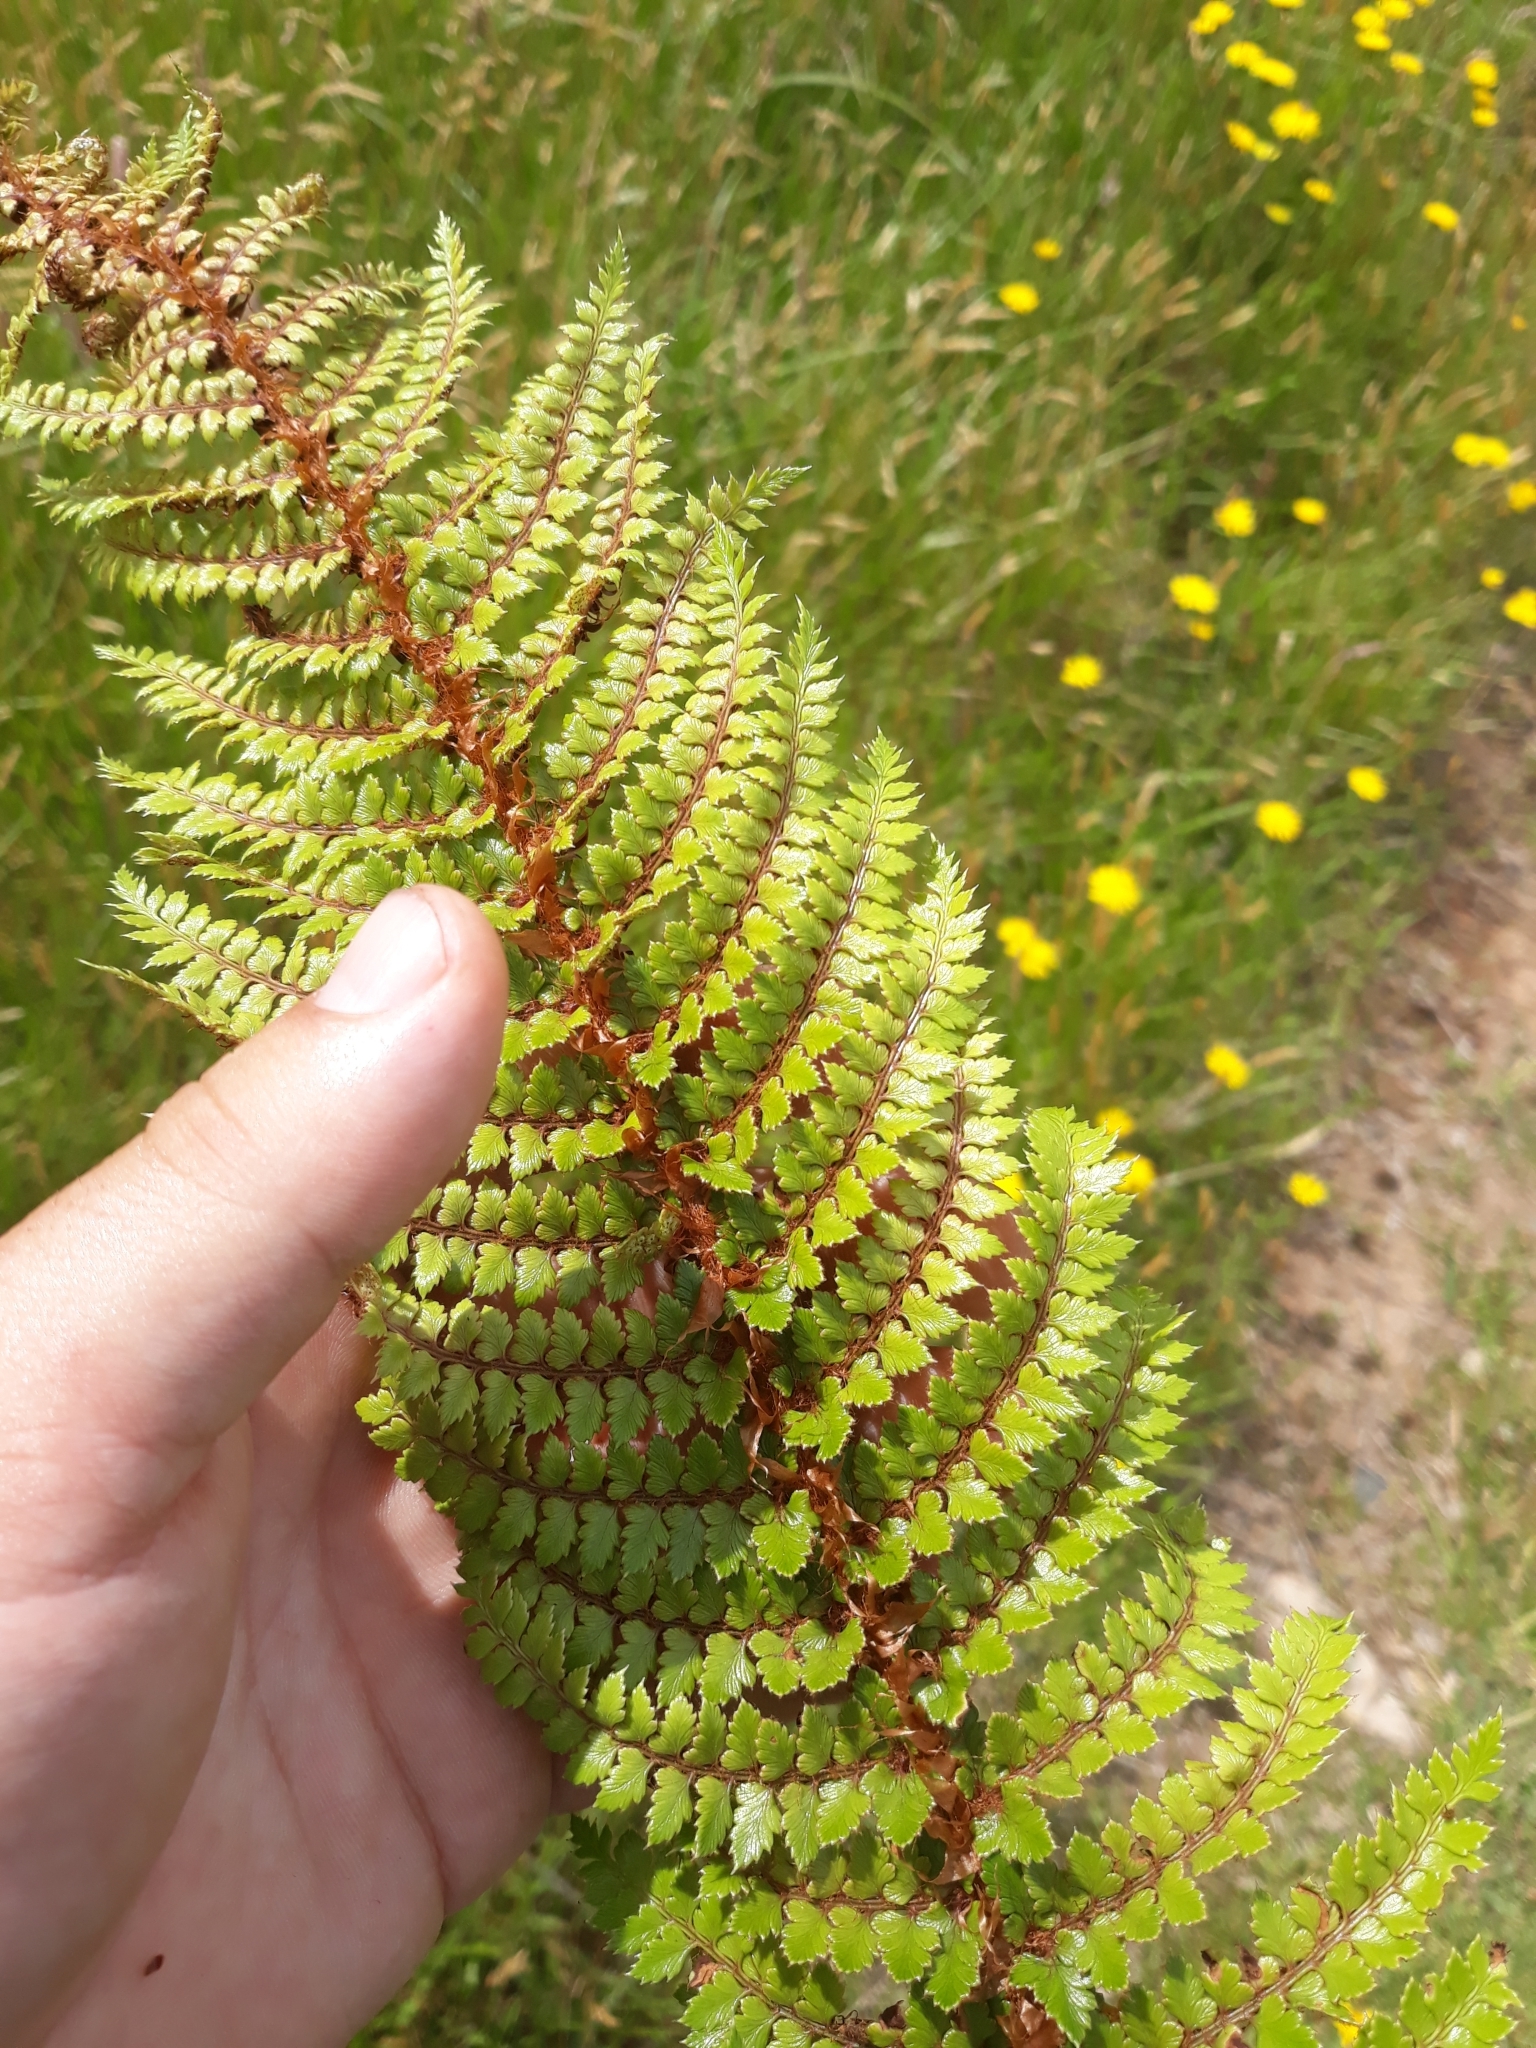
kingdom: Plantae
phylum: Tracheophyta
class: Polypodiopsida
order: Polypodiales
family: Dryopteridaceae
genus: Polystichum
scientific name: Polystichum vestitum
